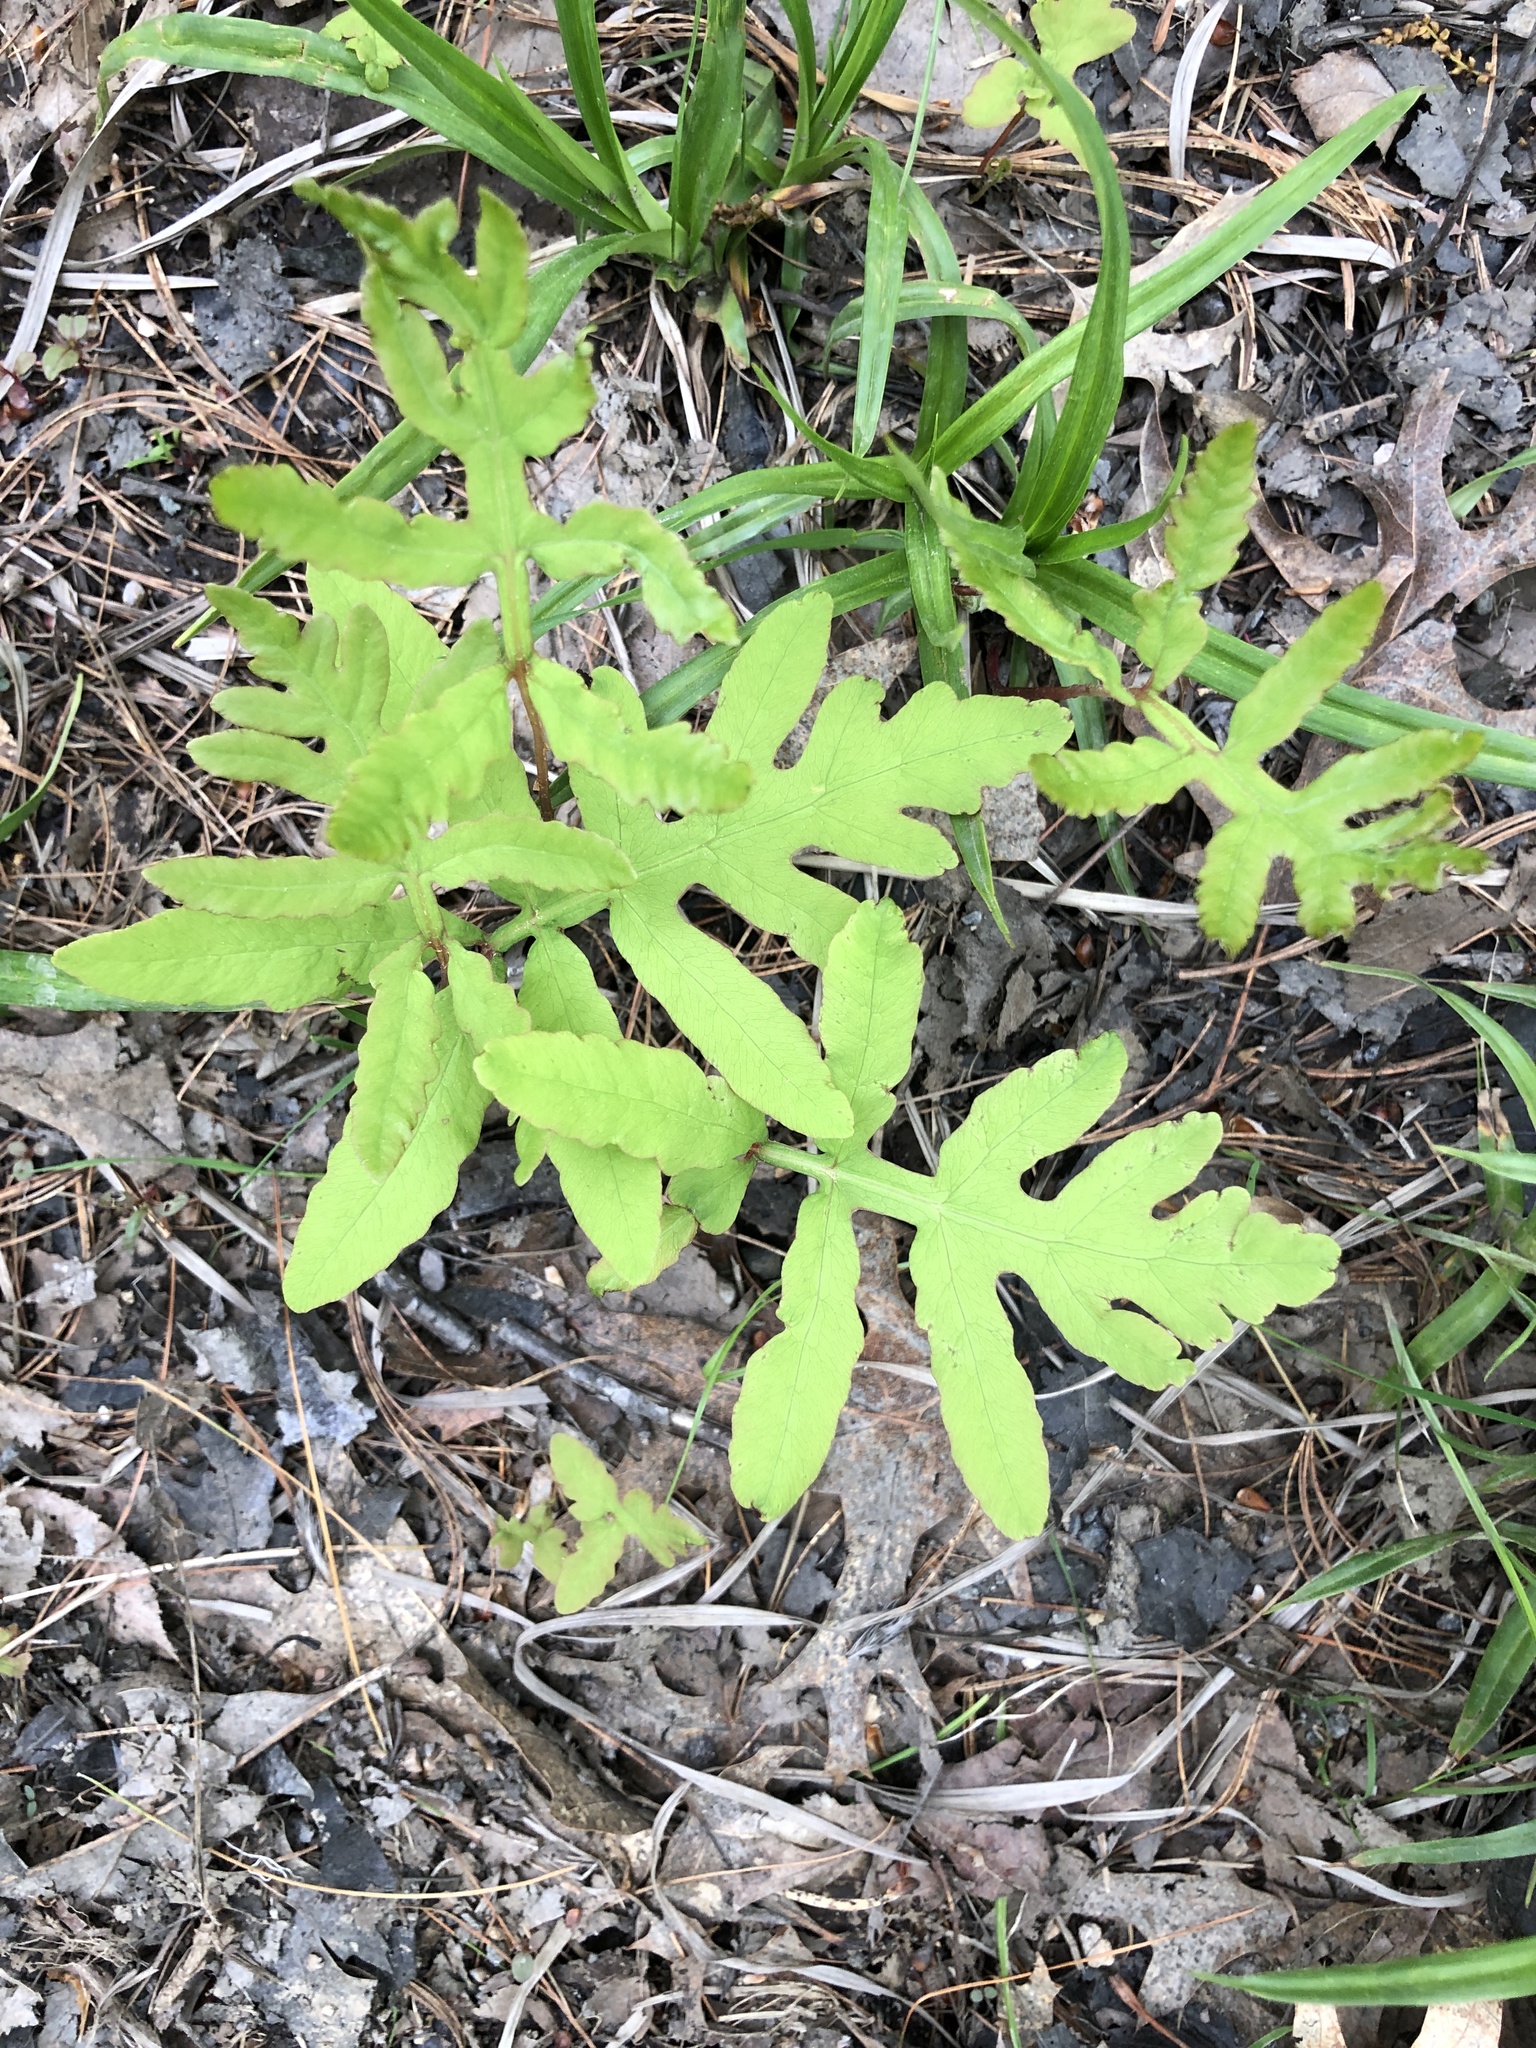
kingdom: Plantae
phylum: Tracheophyta
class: Polypodiopsida
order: Polypodiales
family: Onocleaceae
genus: Onoclea
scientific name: Onoclea sensibilis
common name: Sensitive fern
